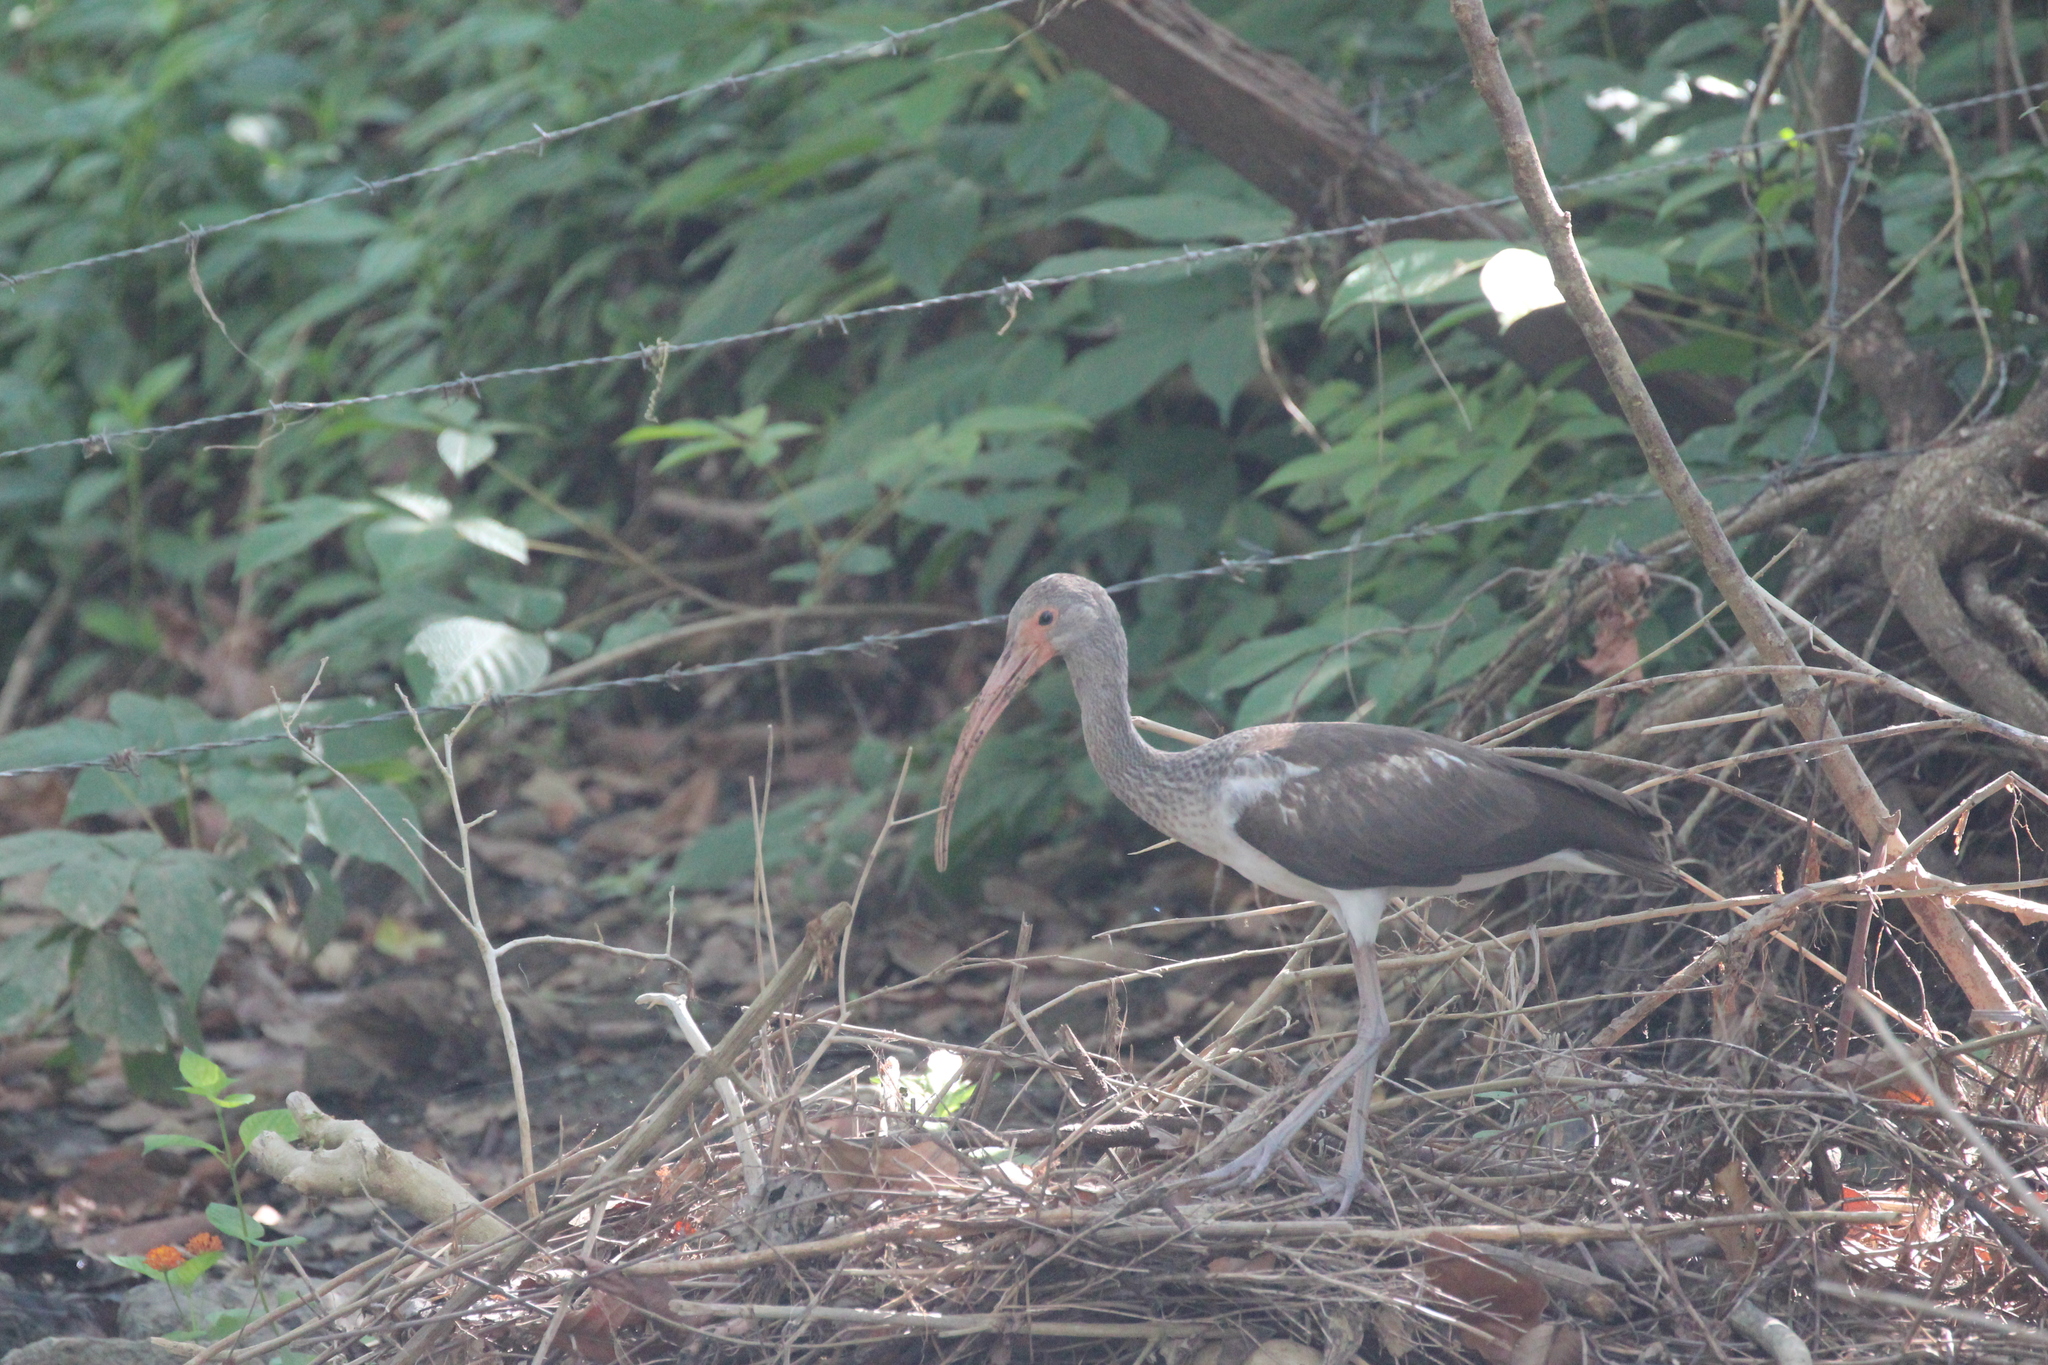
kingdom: Animalia
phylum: Chordata
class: Aves
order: Pelecaniformes
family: Threskiornithidae
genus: Eudocimus
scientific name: Eudocimus albus
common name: White ibis
